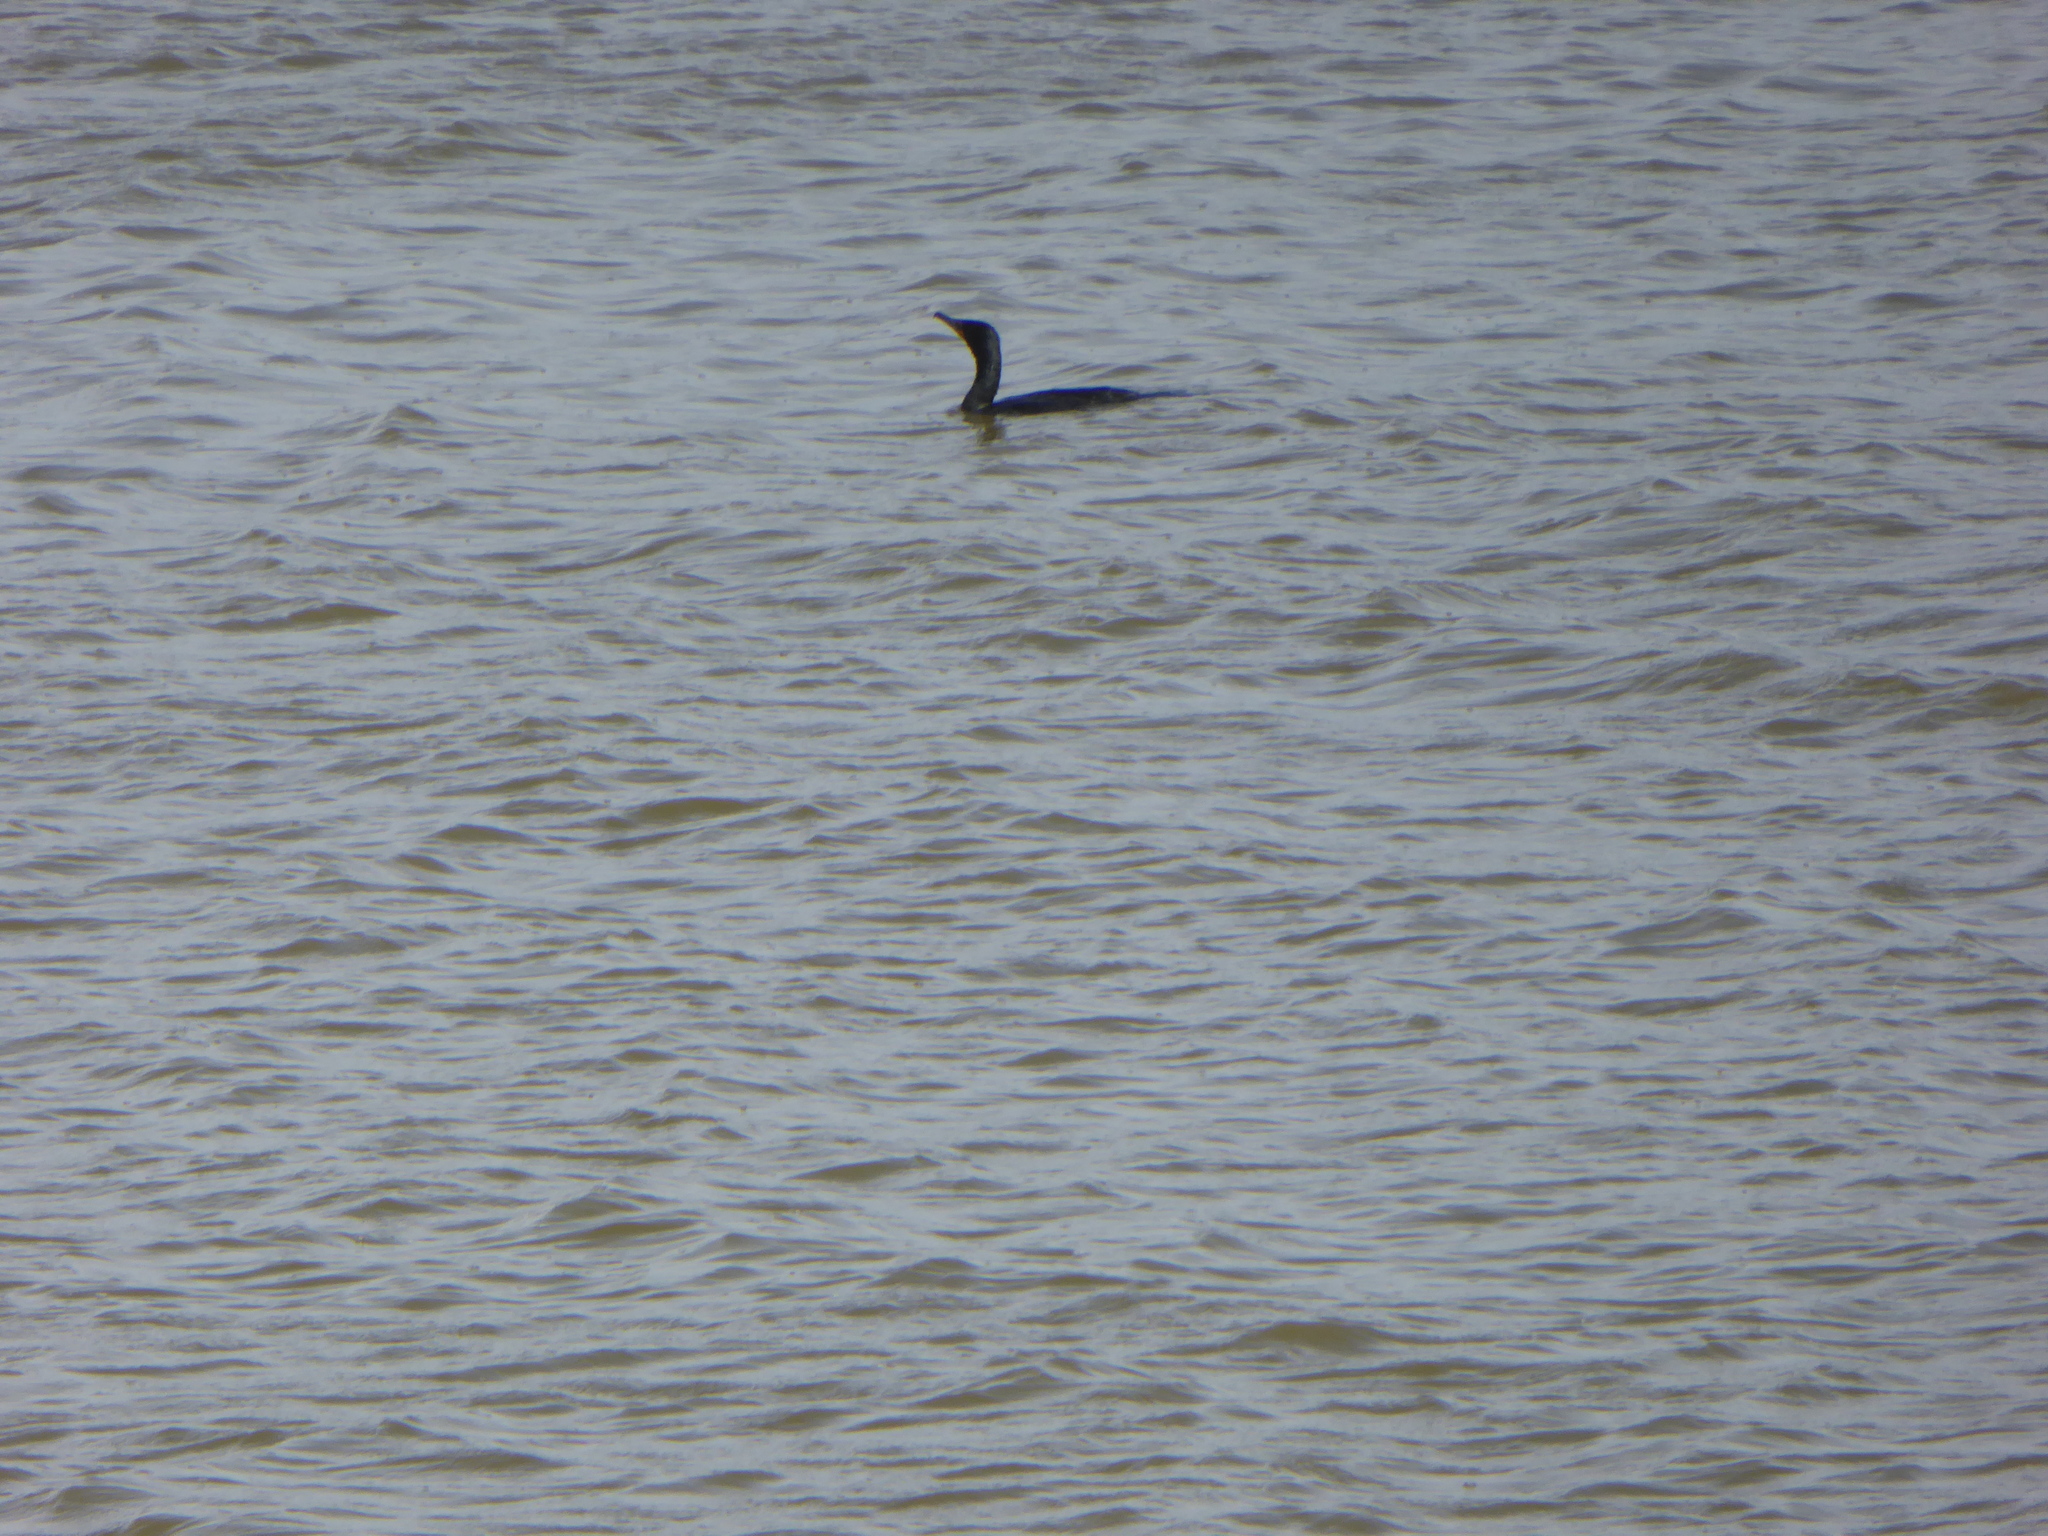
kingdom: Animalia
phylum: Chordata
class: Aves
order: Suliformes
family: Phalacrocoracidae
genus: Phalacrocorax
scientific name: Phalacrocorax auritus
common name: Double-crested cormorant
